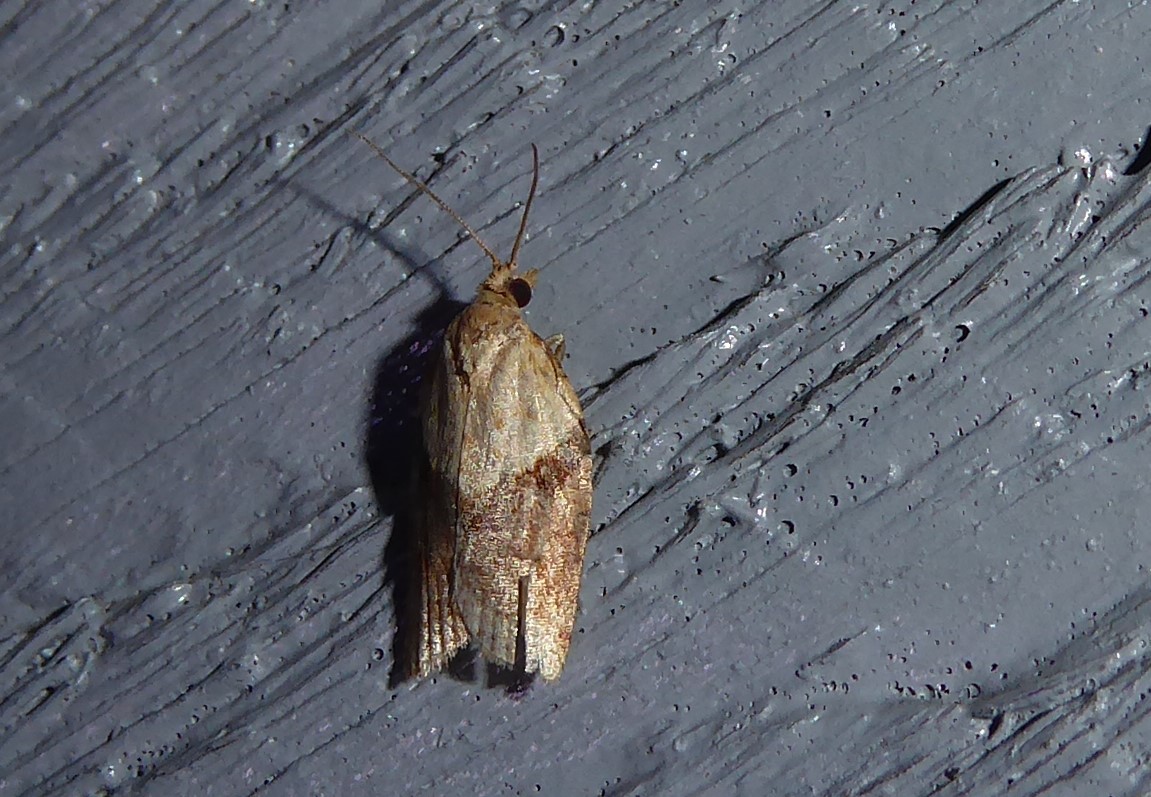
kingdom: Animalia
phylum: Arthropoda
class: Insecta
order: Lepidoptera
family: Tortricidae
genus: Epiphyas
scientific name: Epiphyas postvittana
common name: Light brown apple moth
